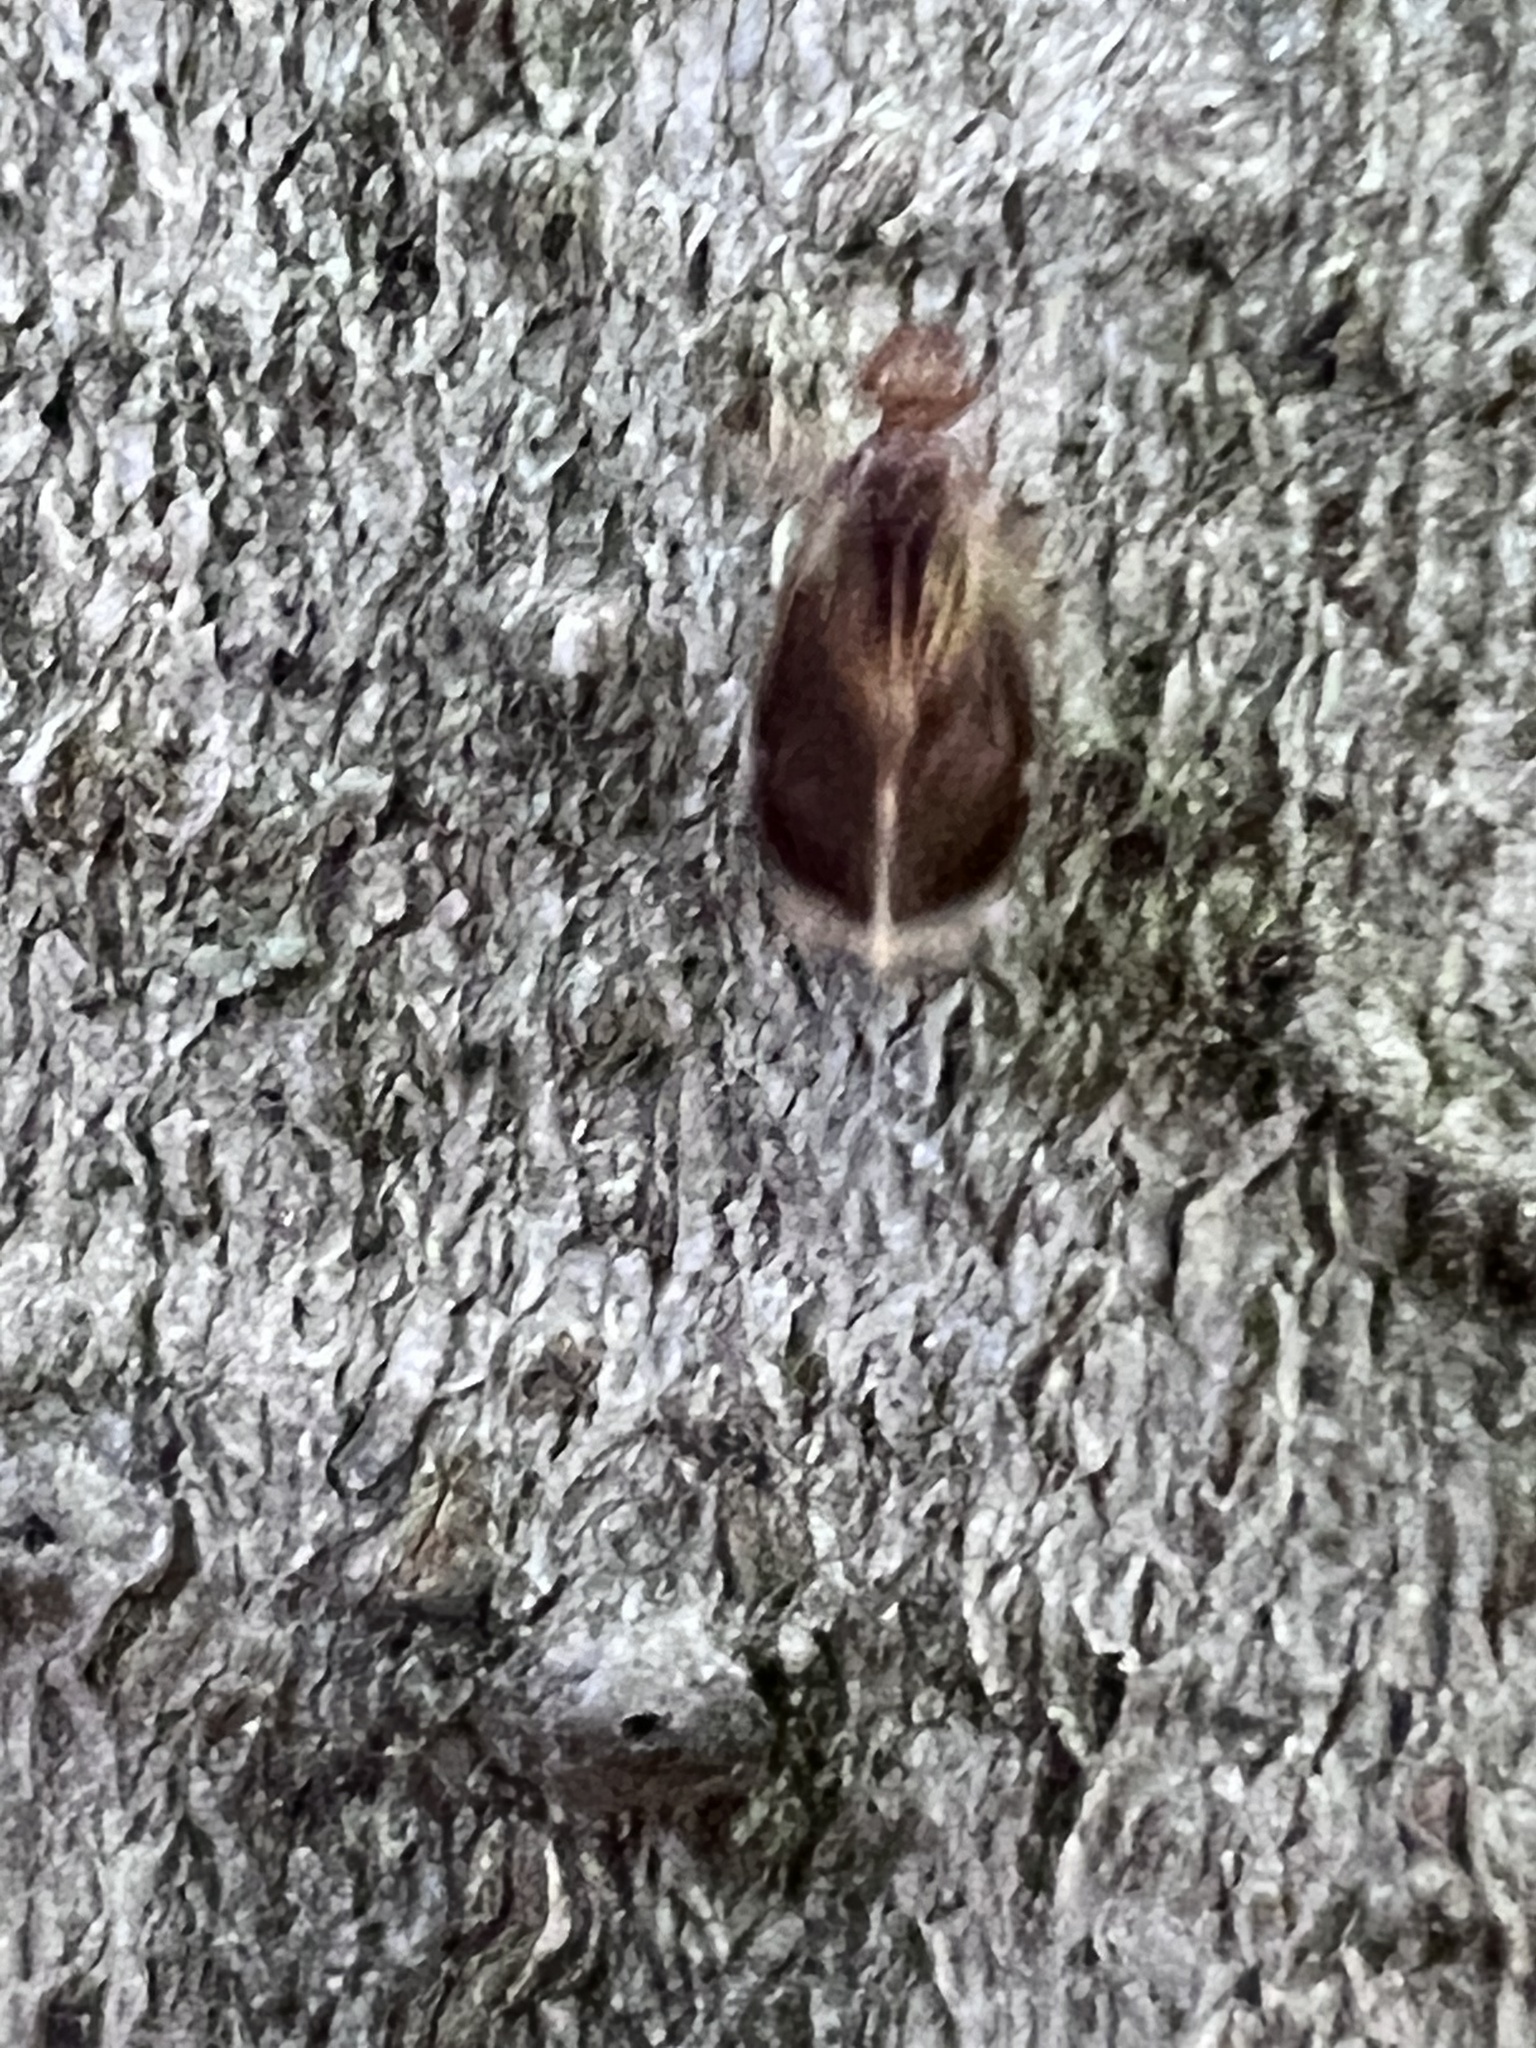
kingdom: Animalia
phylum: Arthropoda
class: Insecta
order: Psocodea
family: Amphipsocidae
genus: Polypsocus
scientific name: Polypsocus corruptus
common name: Corrupt barklouse
